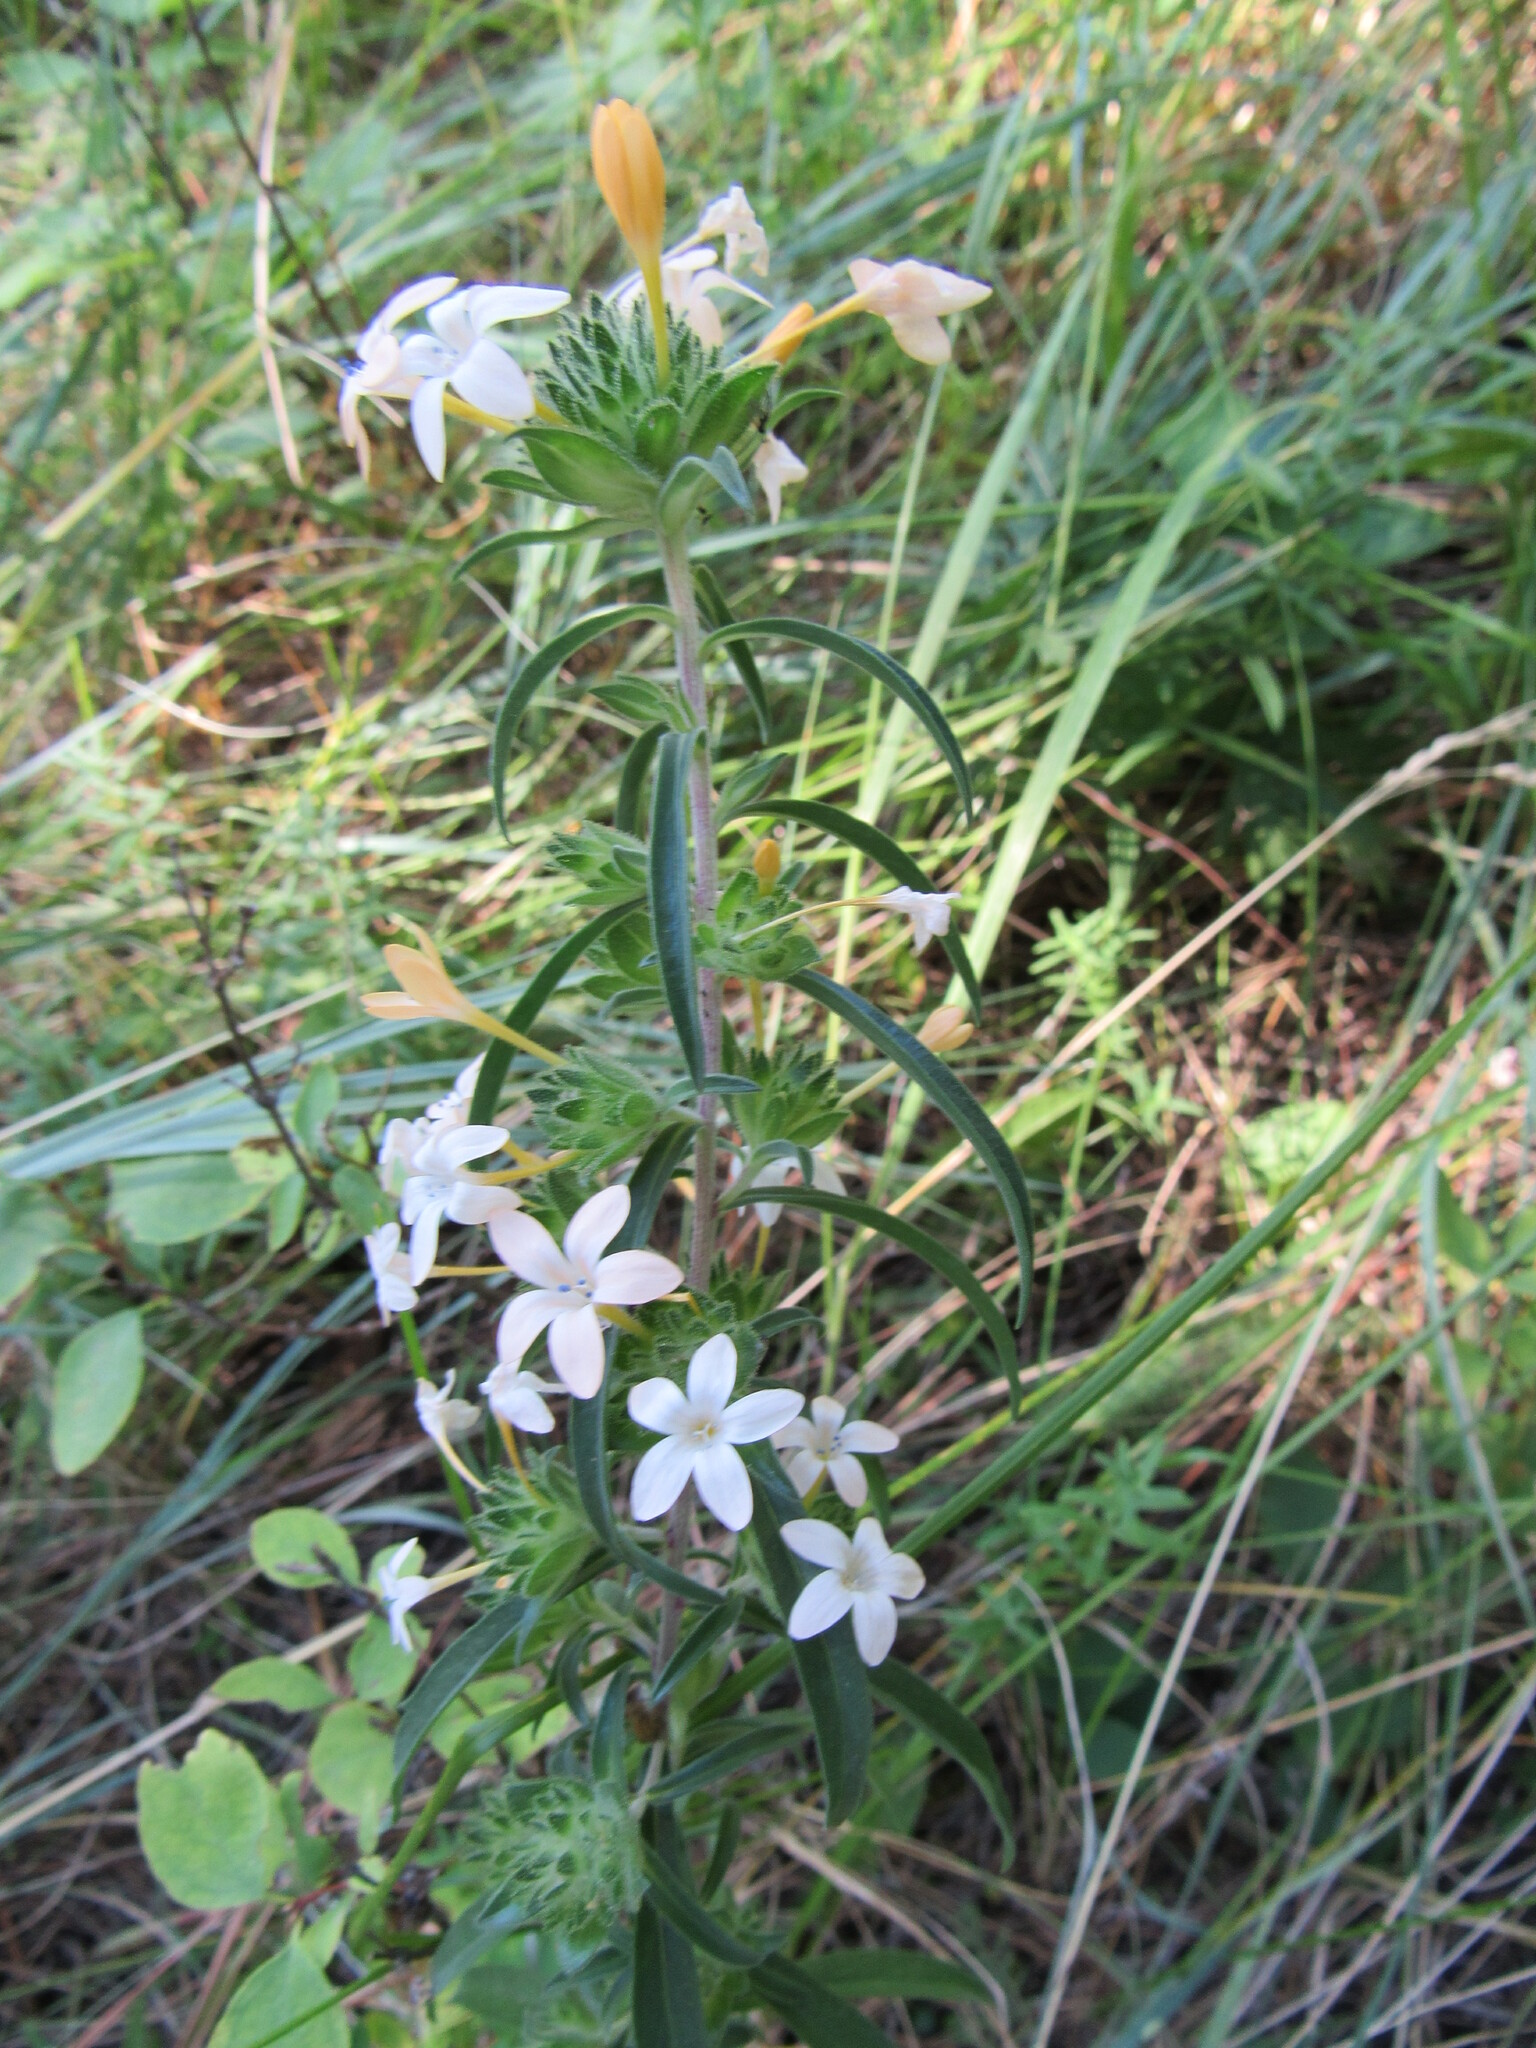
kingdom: Plantae
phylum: Tracheophyta
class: Magnoliopsida
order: Ericales
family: Polemoniaceae
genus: Collomia
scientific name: Collomia grandiflora
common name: California strawflower
